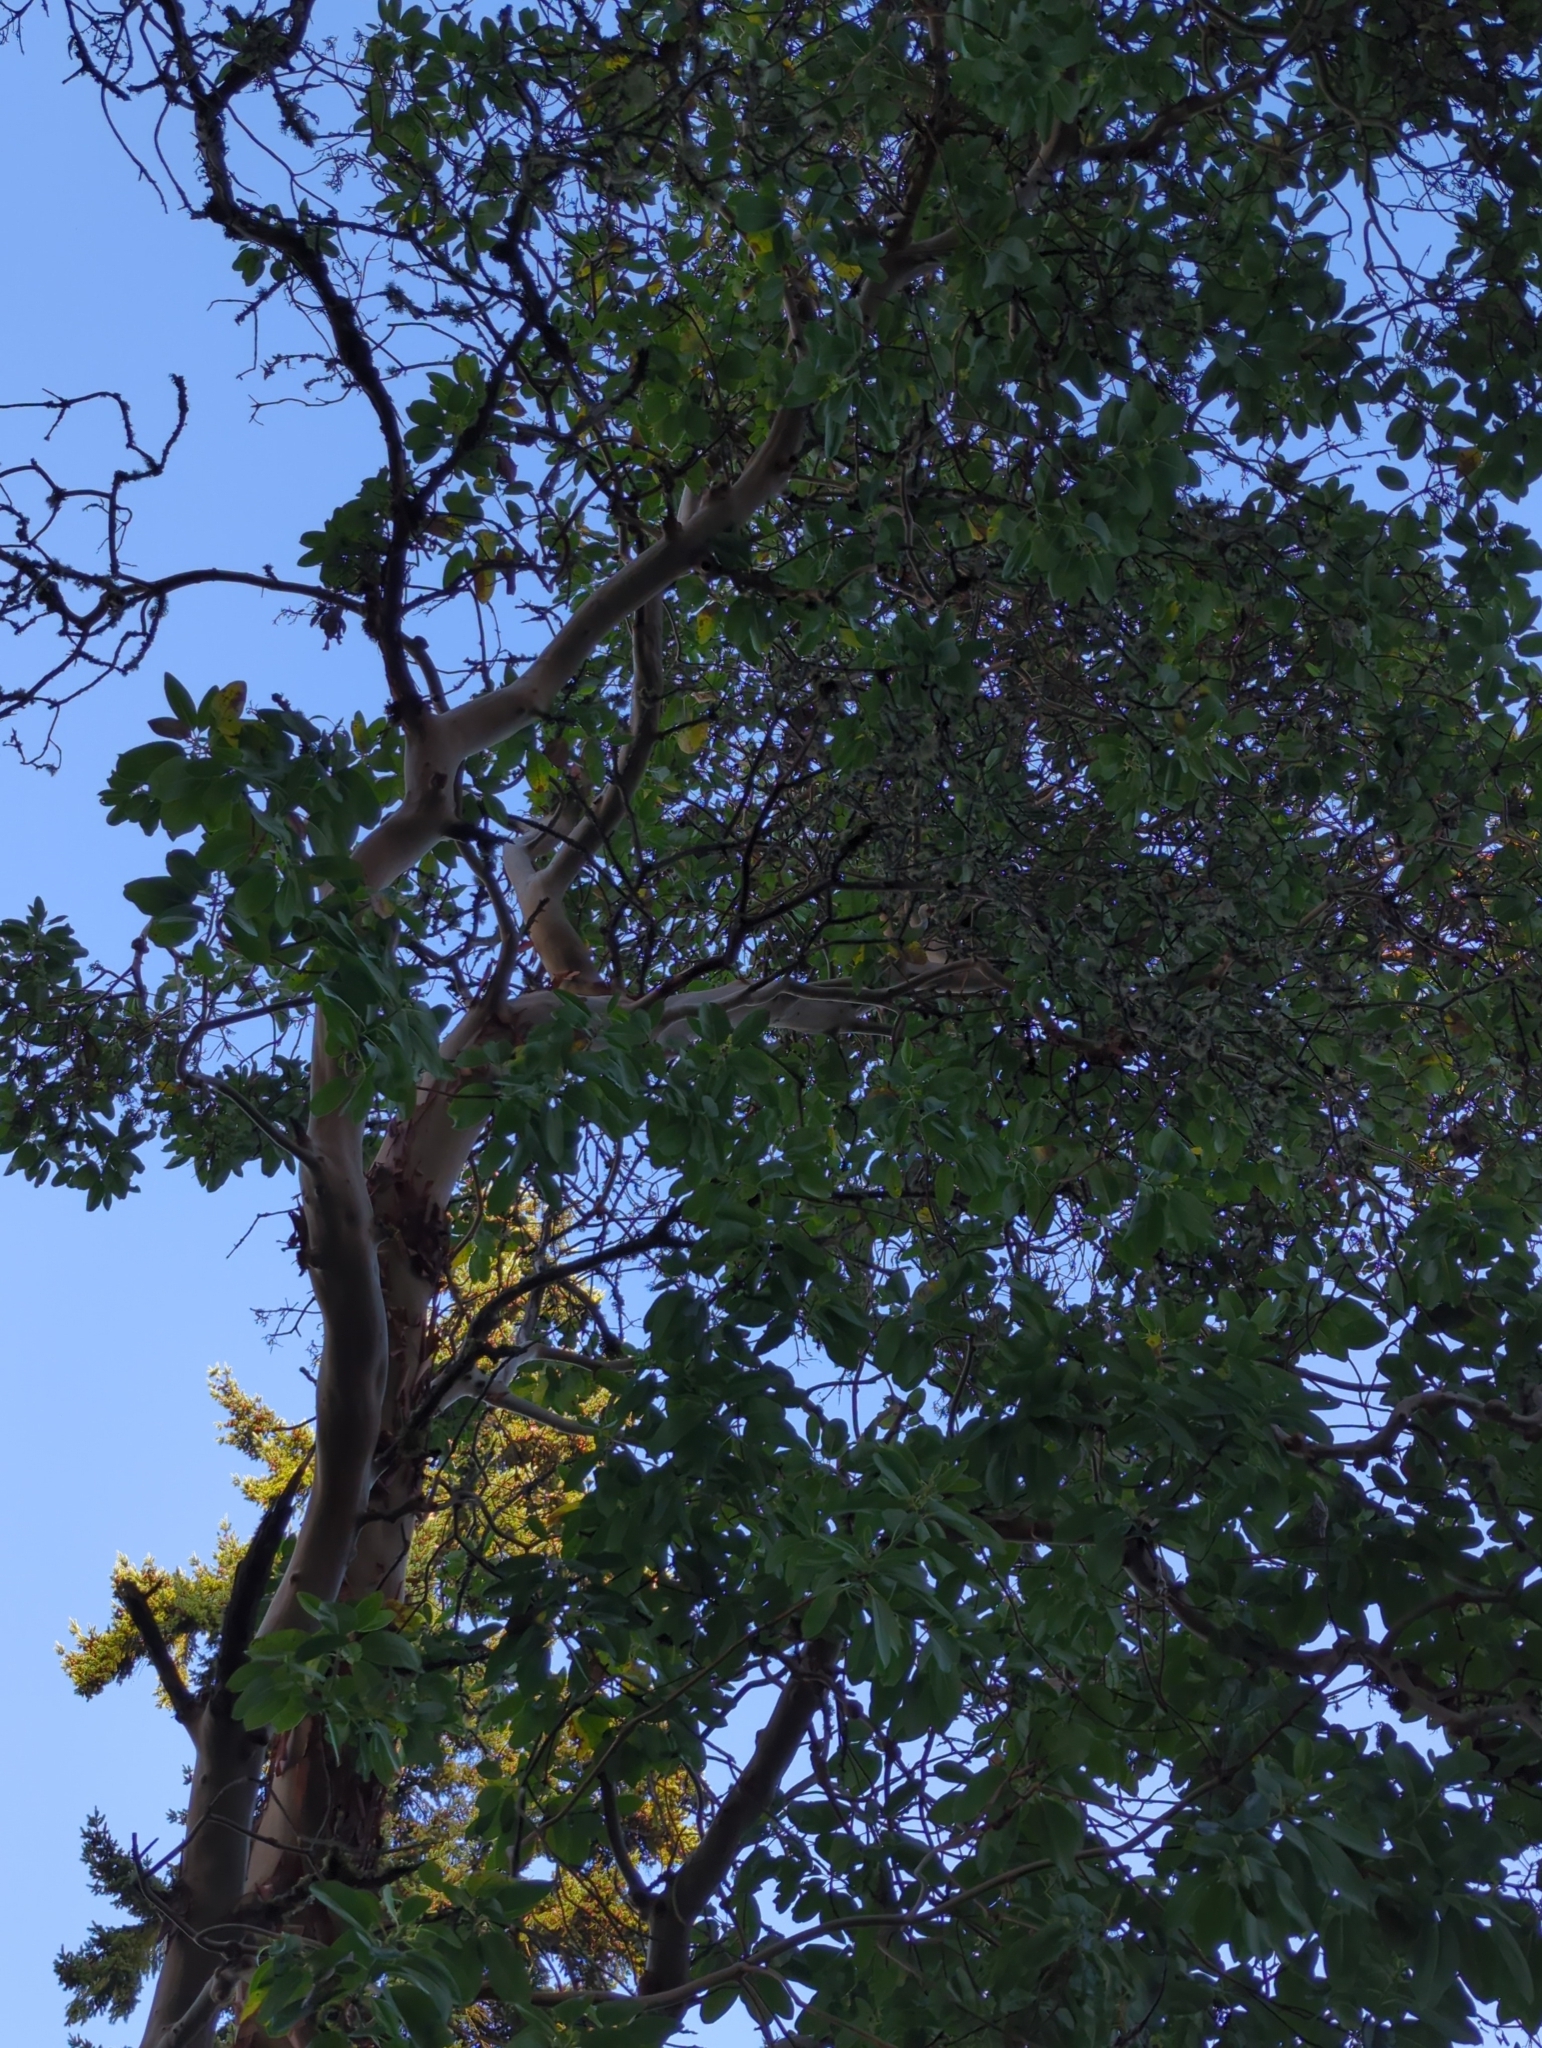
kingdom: Plantae
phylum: Tracheophyta
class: Magnoliopsida
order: Ericales
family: Ericaceae
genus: Arbutus
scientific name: Arbutus menziesii
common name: Pacific madrone
